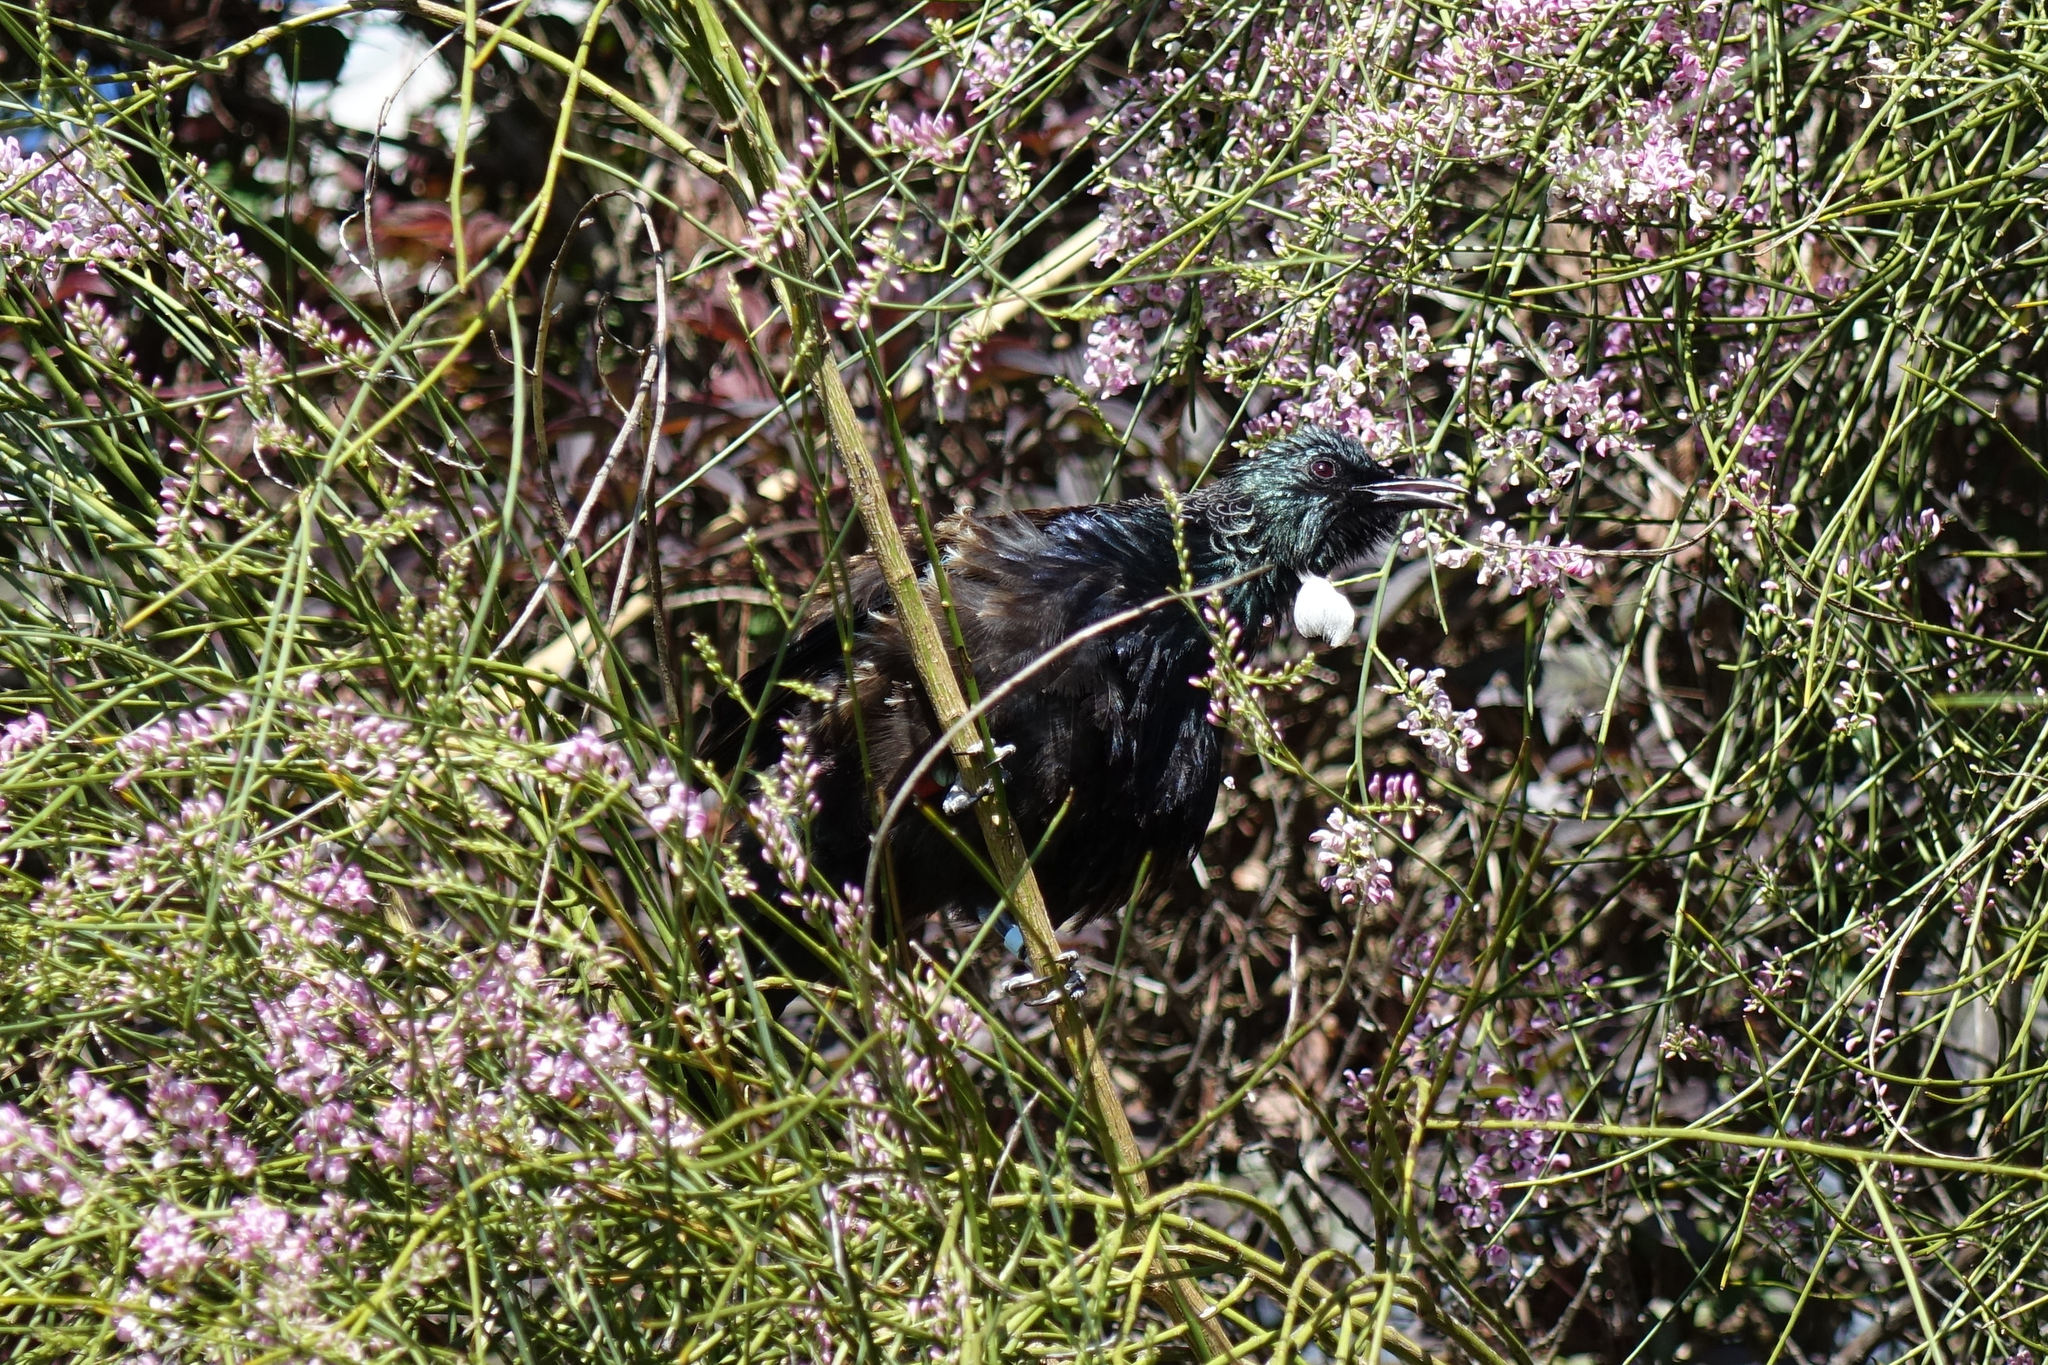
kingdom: Animalia
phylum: Chordata
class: Aves
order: Passeriformes
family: Meliphagidae
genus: Prosthemadera
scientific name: Prosthemadera novaeseelandiae
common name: Tui
